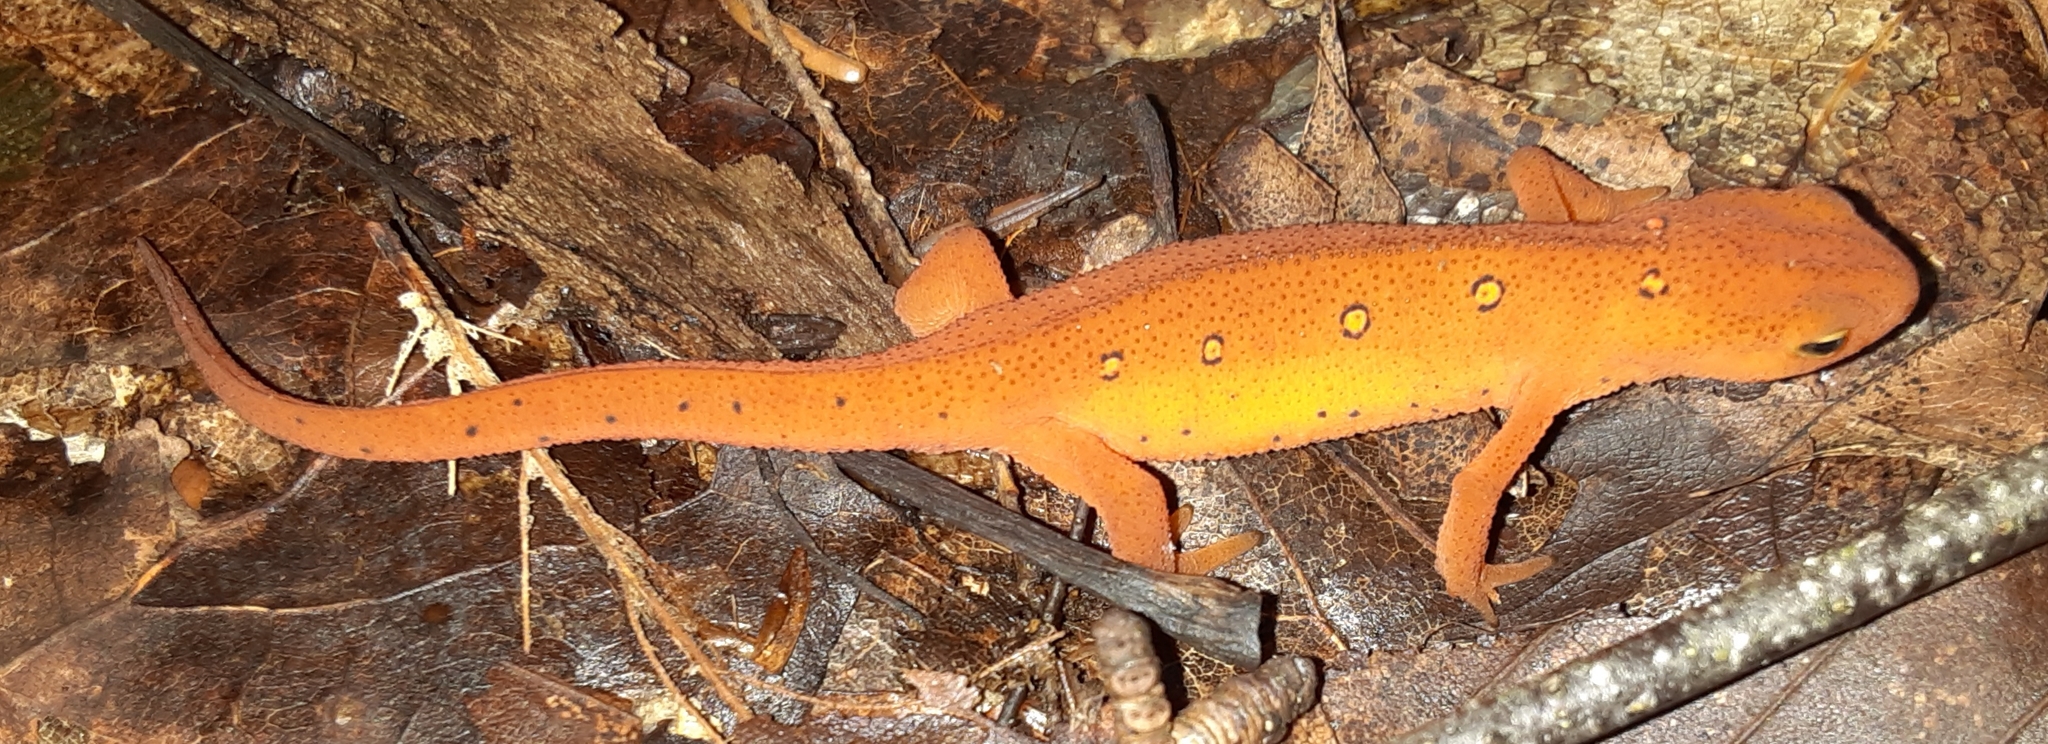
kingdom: Animalia
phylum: Chordata
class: Amphibia
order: Caudata
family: Salamandridae
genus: Notophthalmus
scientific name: Notophthalmus viridescens
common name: Eastern newt
